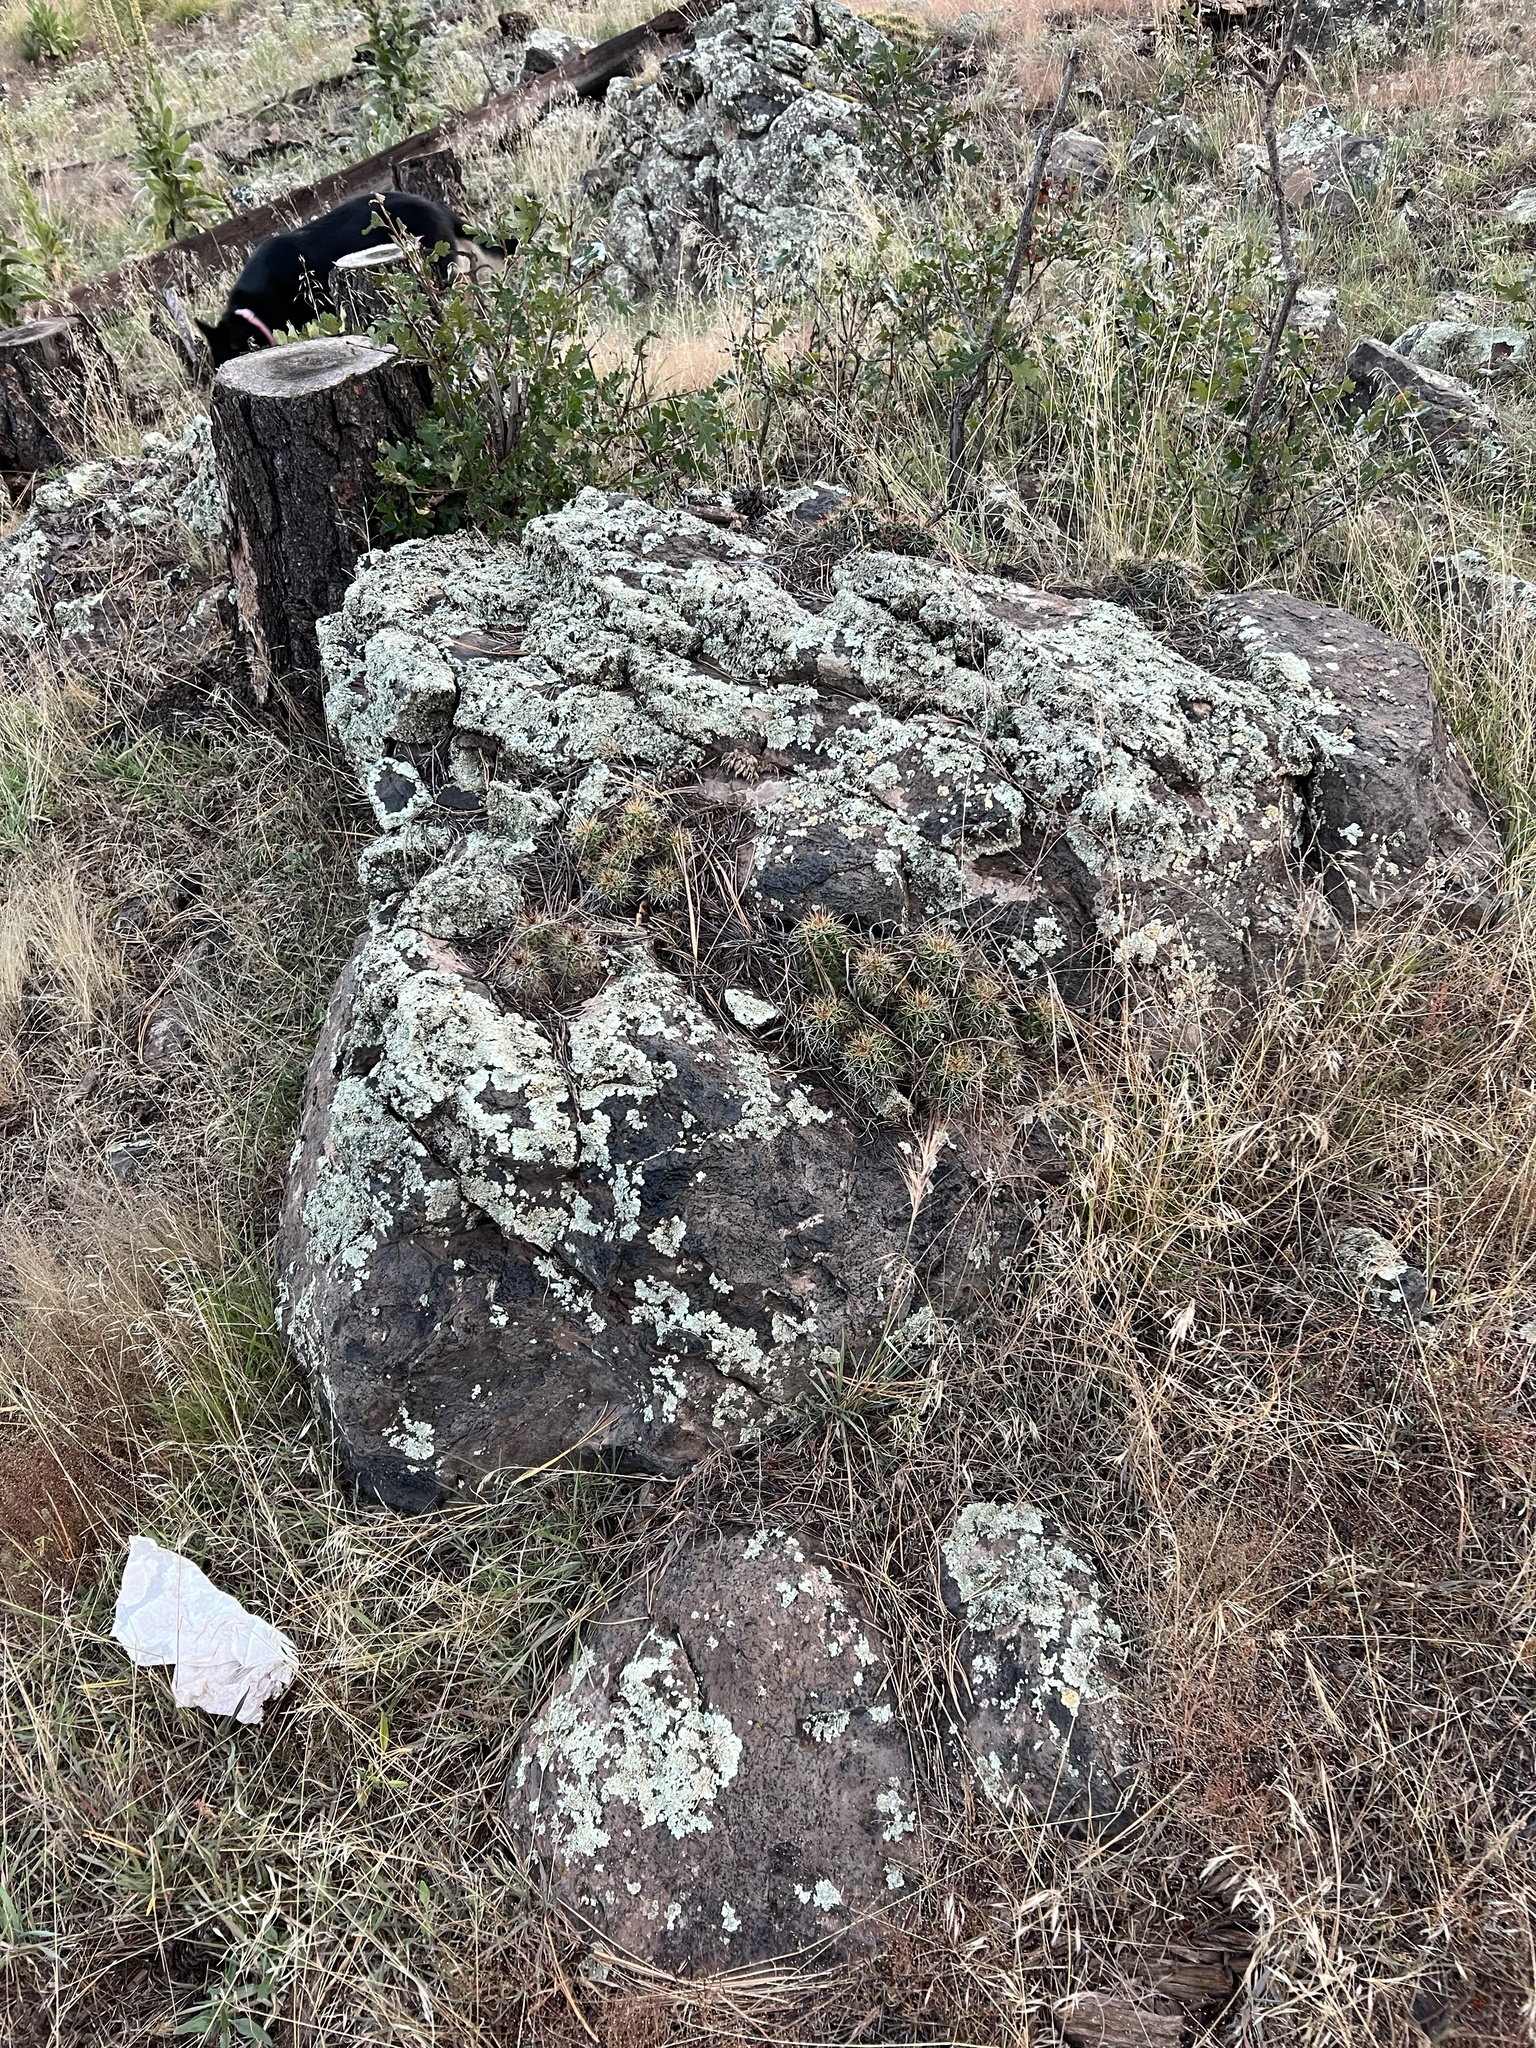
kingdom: Plantae
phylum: Tracheophyta
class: Magnoliopsida
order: Caryophyllales
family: Cactaceae
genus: Echinocereus
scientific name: Echinocereus bakeri
